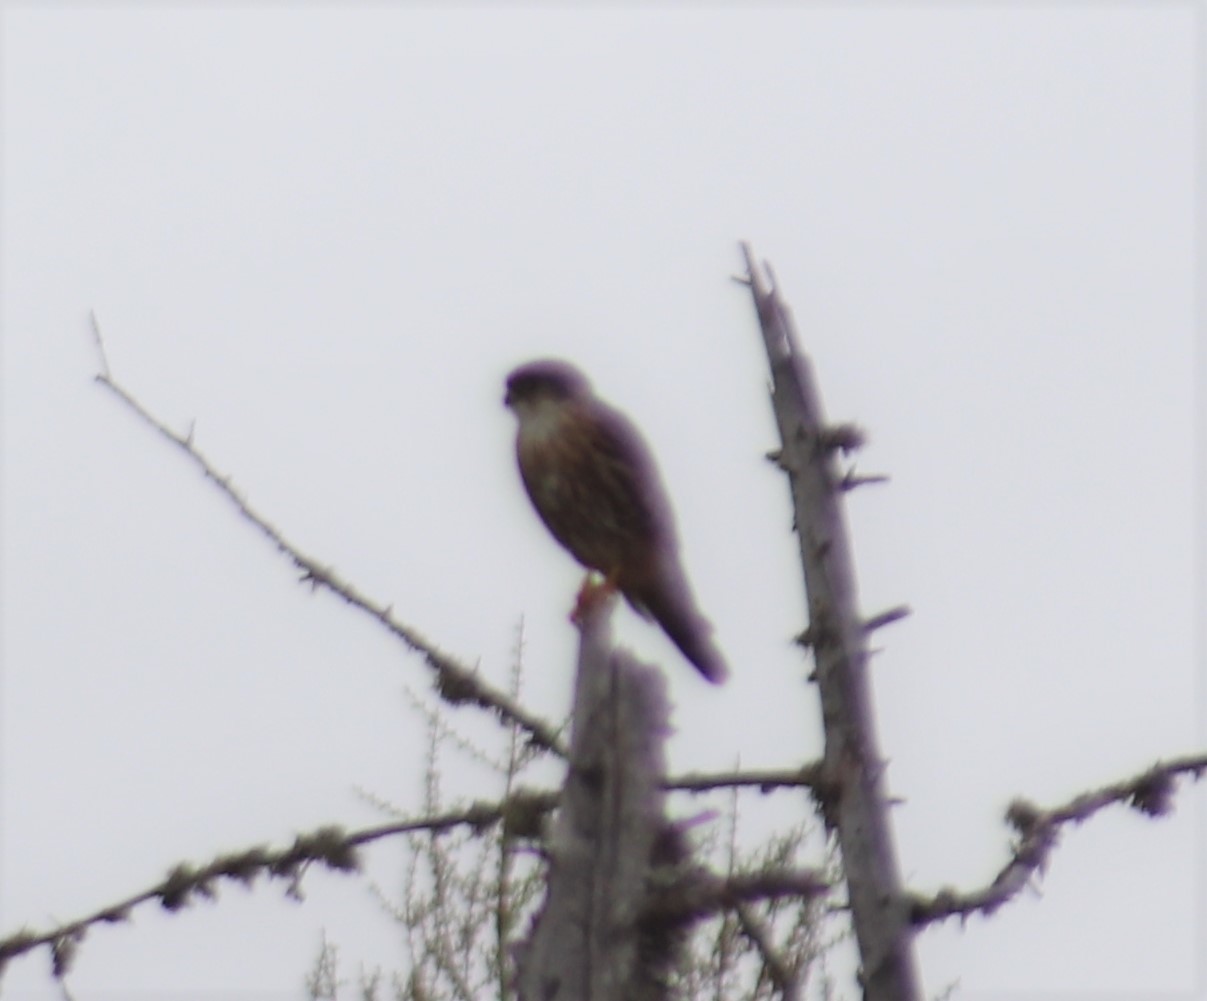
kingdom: Animalia
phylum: Chordata
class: Aves
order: Falconiformes
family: Falconidae
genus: Falco
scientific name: Falco columbarius
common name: Merlin
